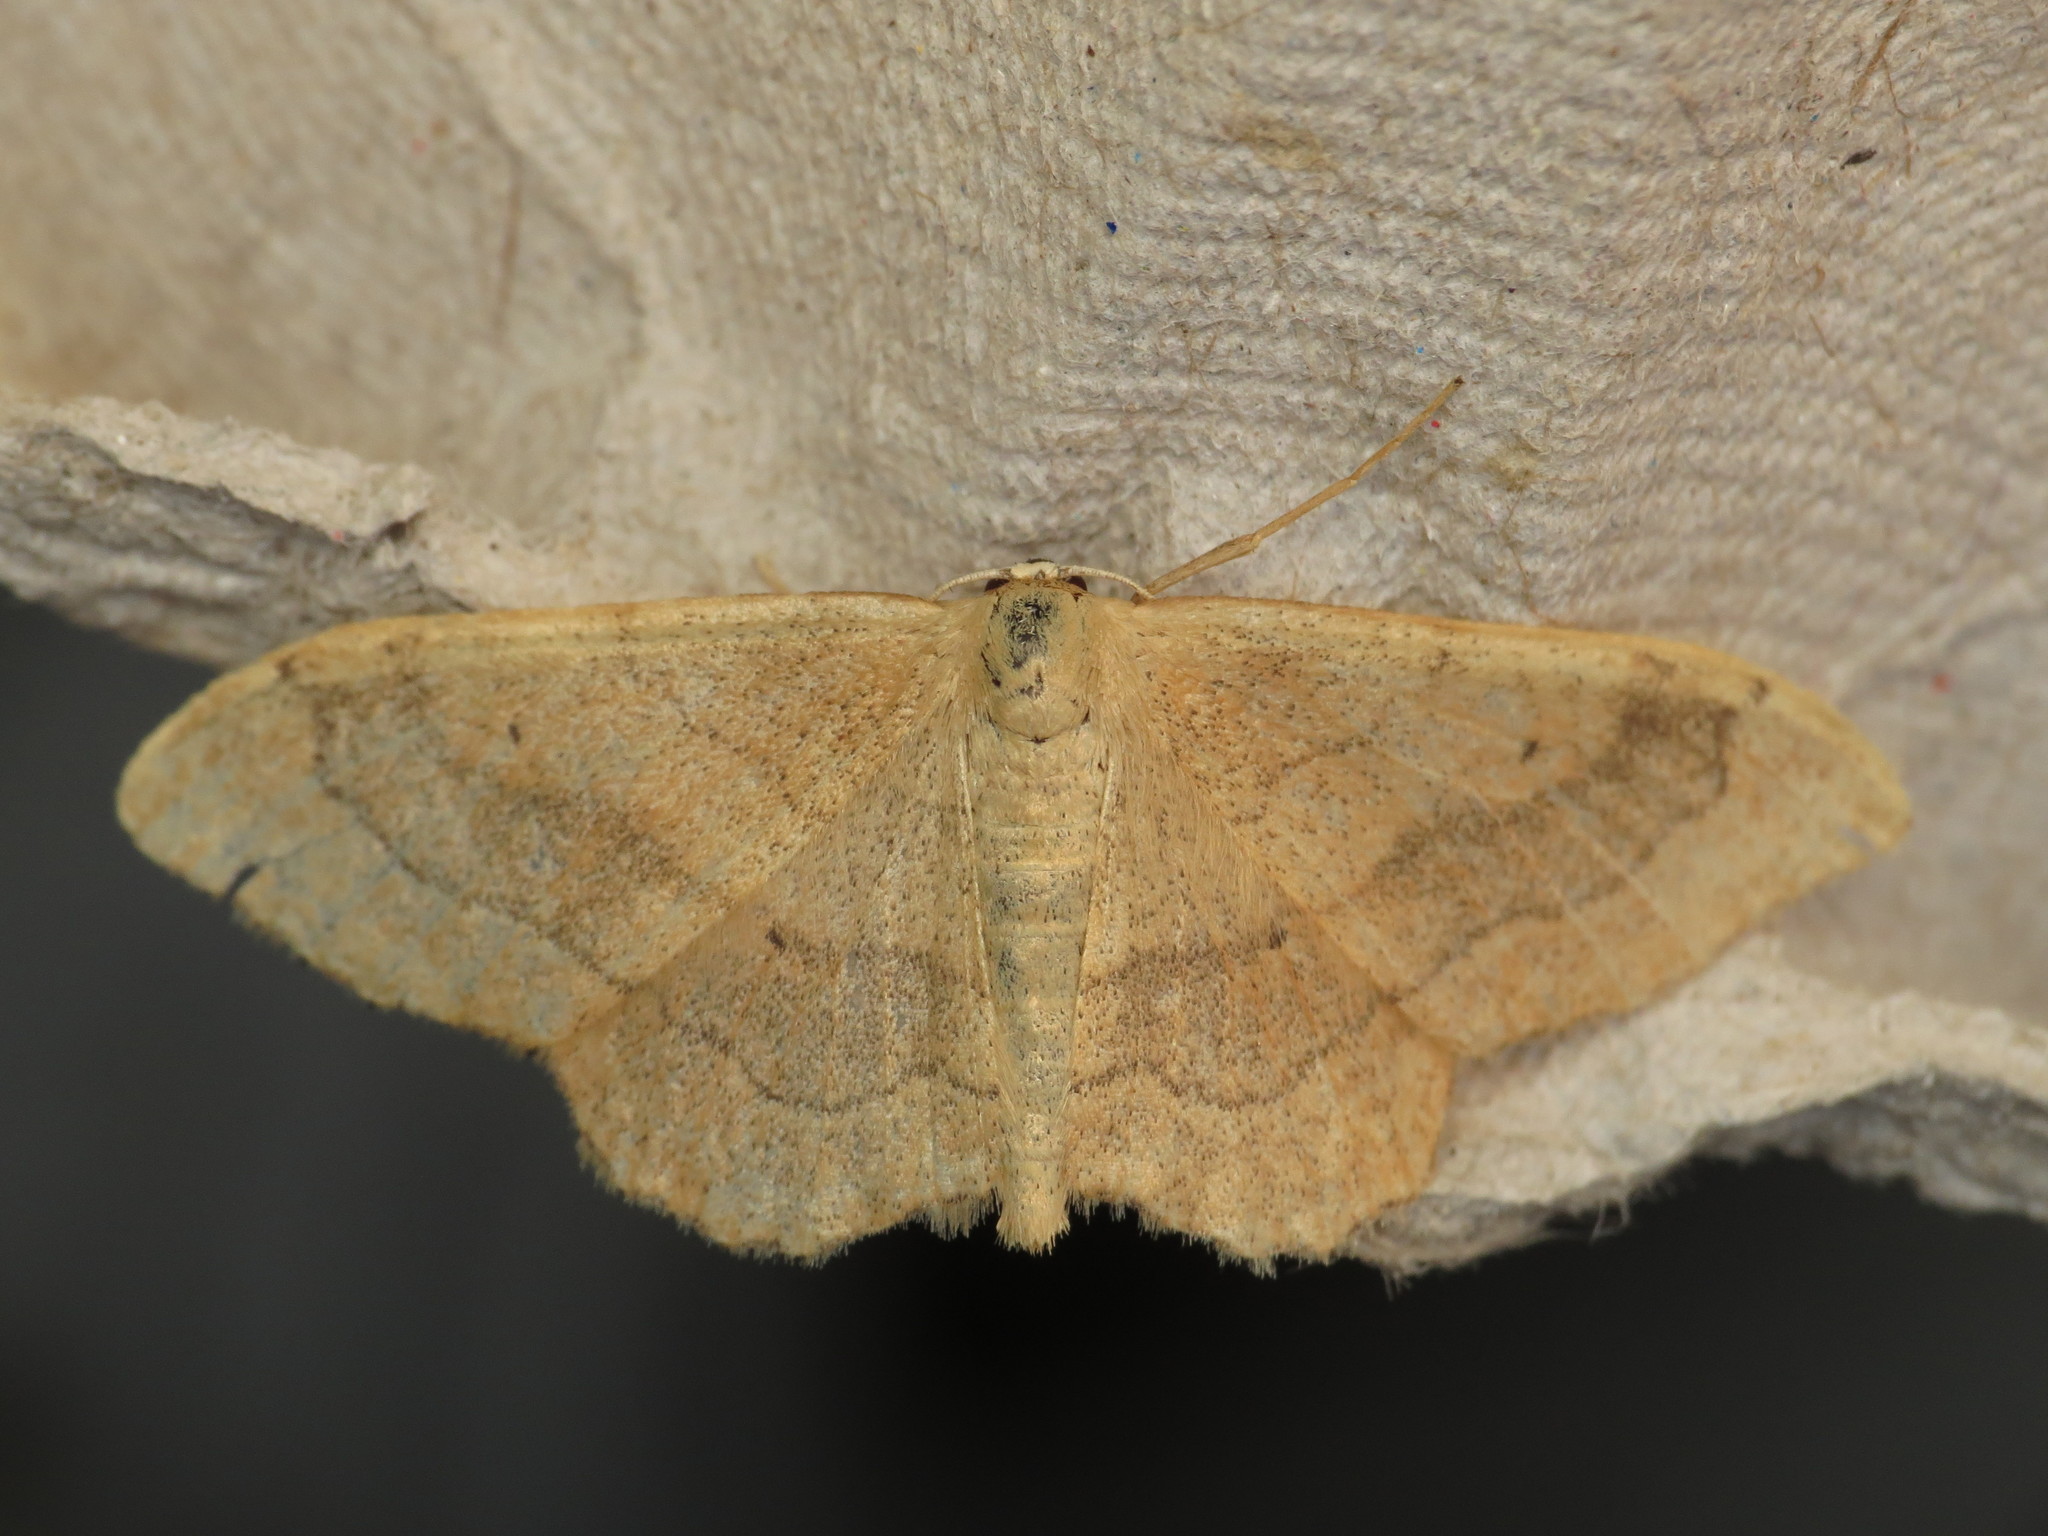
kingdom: Animalia
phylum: Arthropoda
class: Insecta
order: Lepidoptera
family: Geometridae
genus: Idaea
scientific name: Idaea aversata
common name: Riband wave
